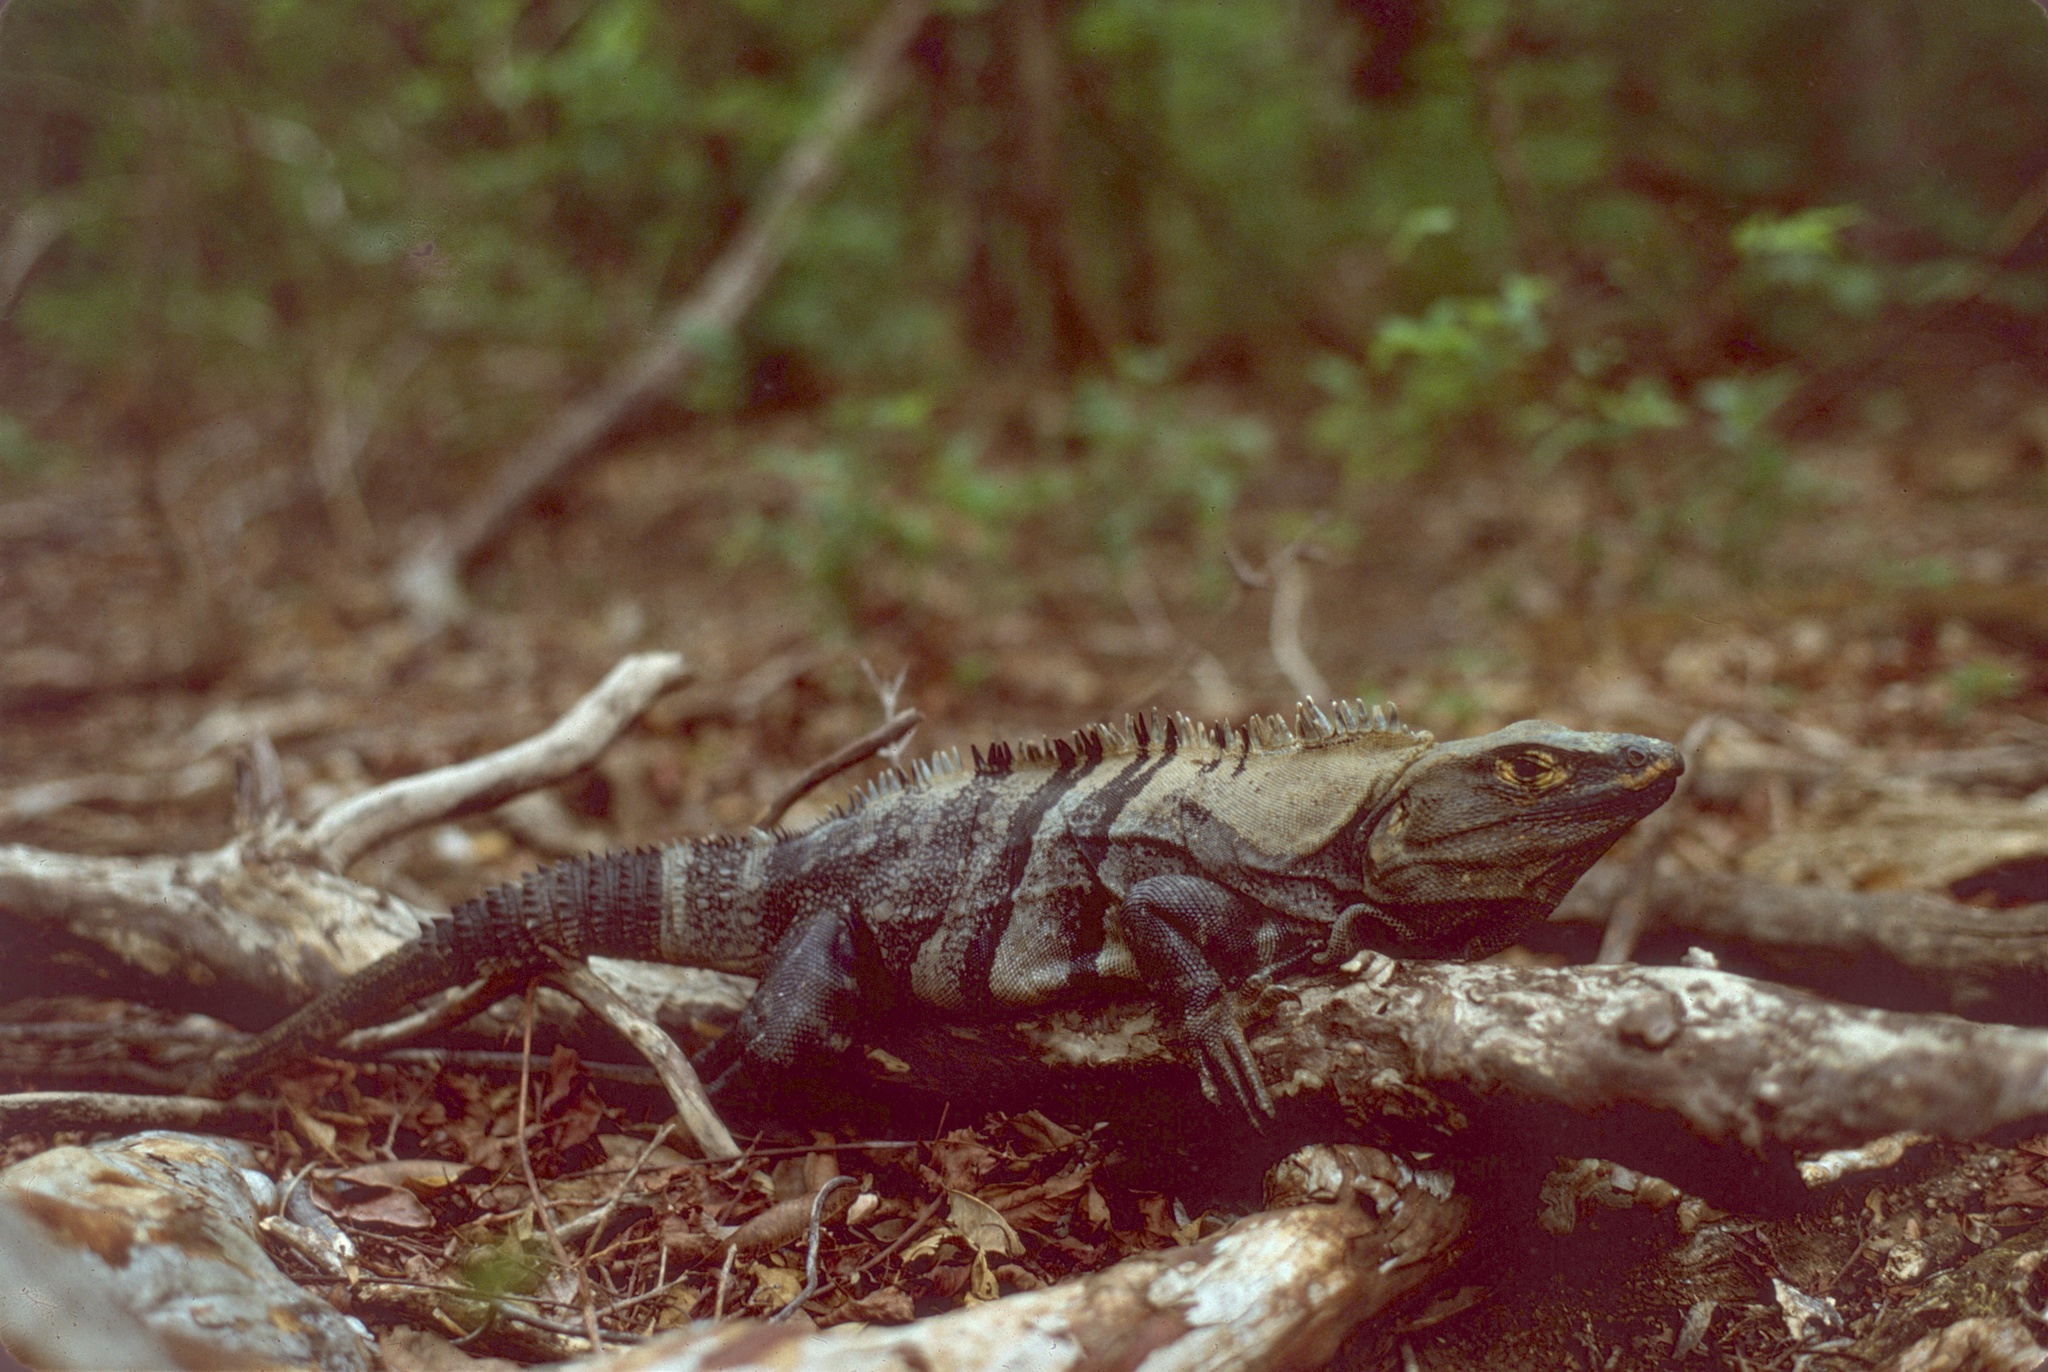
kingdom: Animalia
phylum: Chordata
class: Squamata
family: Iguanidae
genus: Ctenosaura
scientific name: Ctenosaura similis
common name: Black spiny-tailed iguana
